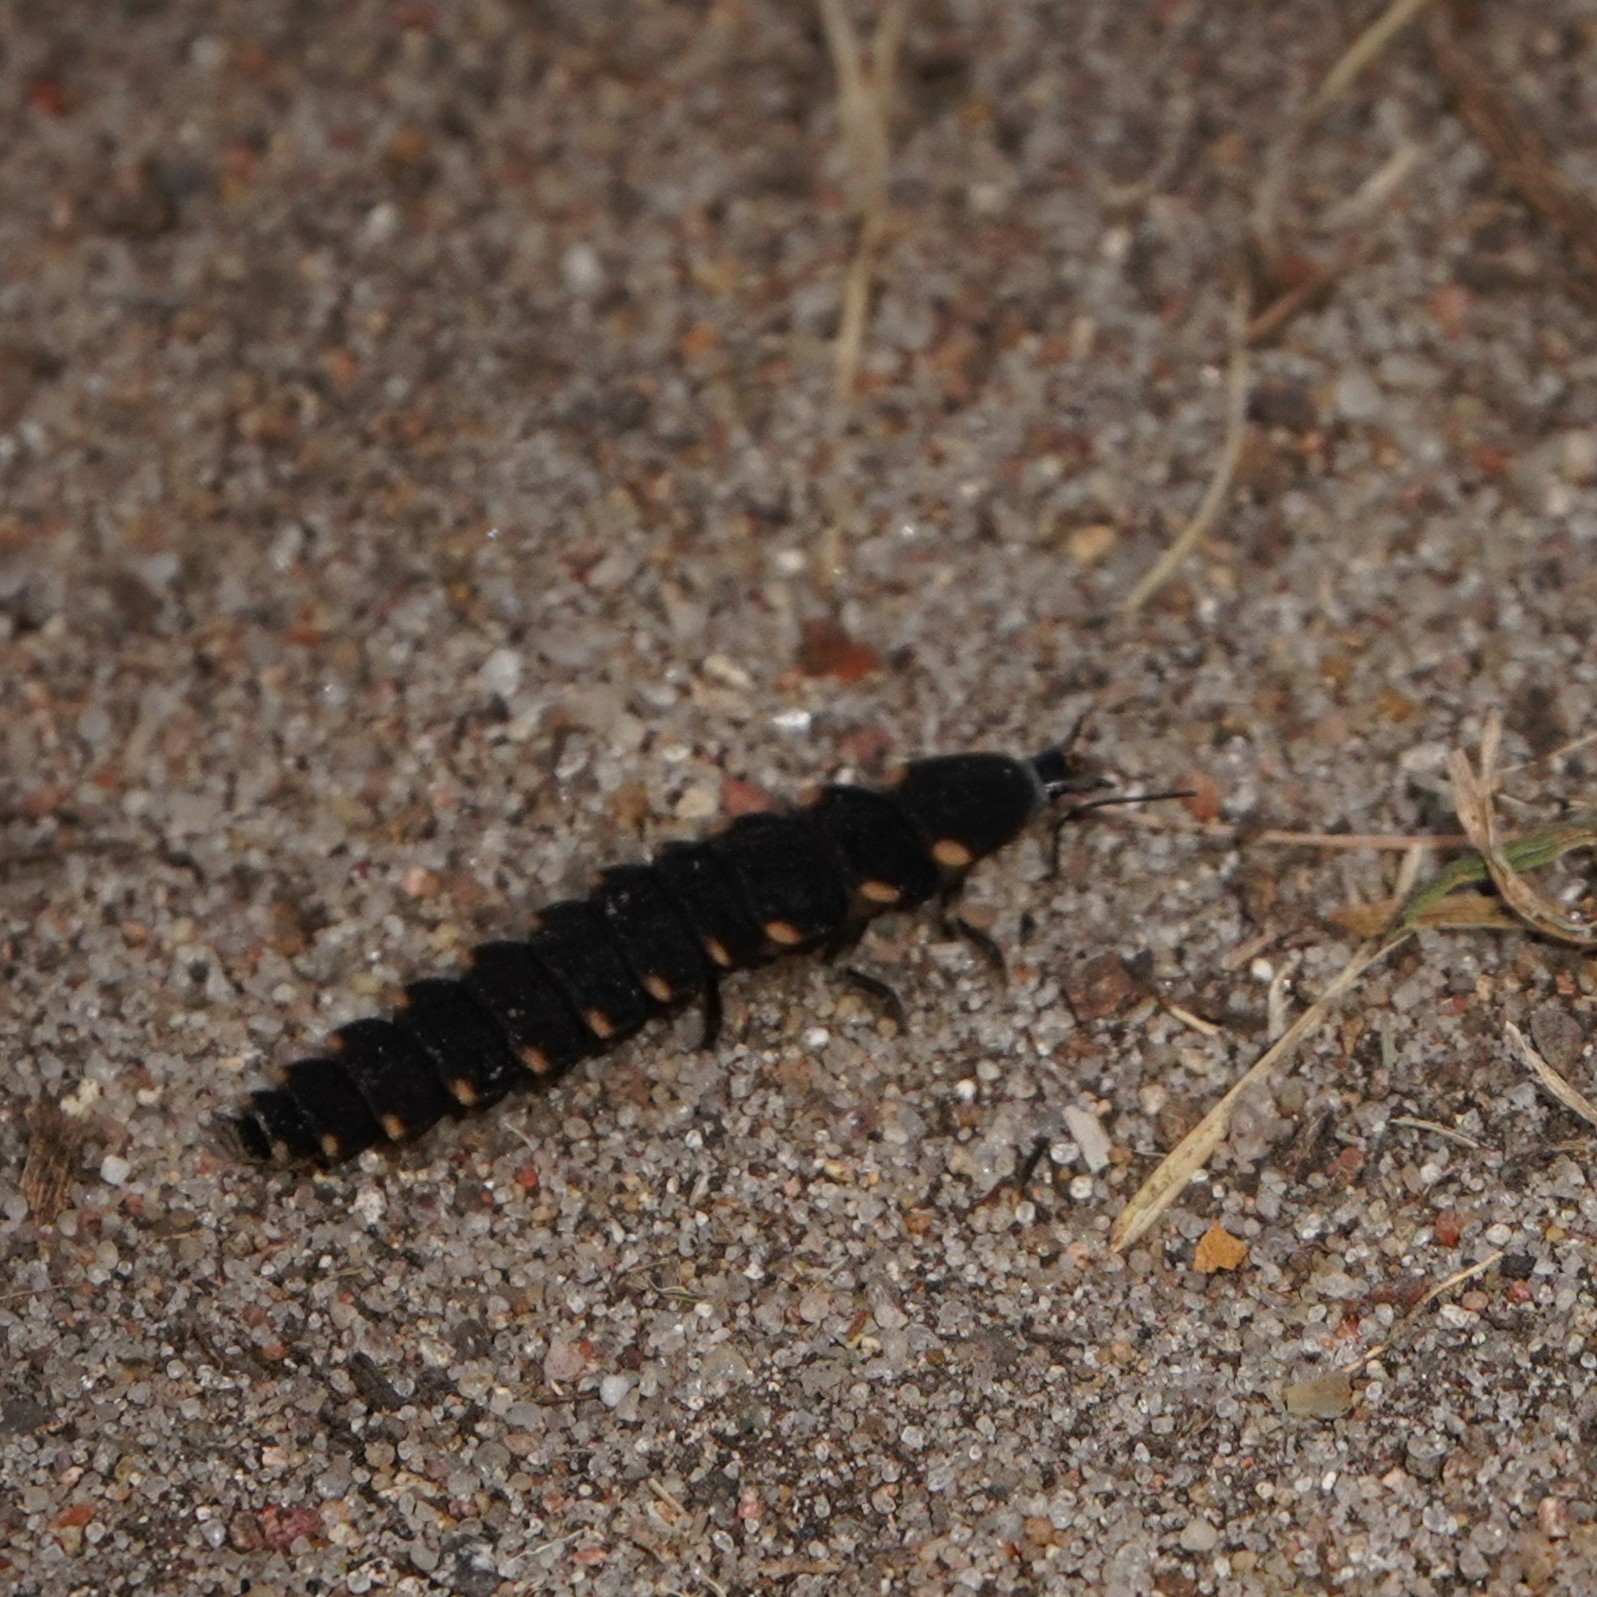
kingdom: Animalia
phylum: Arthropoda
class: Insecta
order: Coleoptera
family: Lampyridae
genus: Lampyris
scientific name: Lampyris noctiluca
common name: Glow-worm
